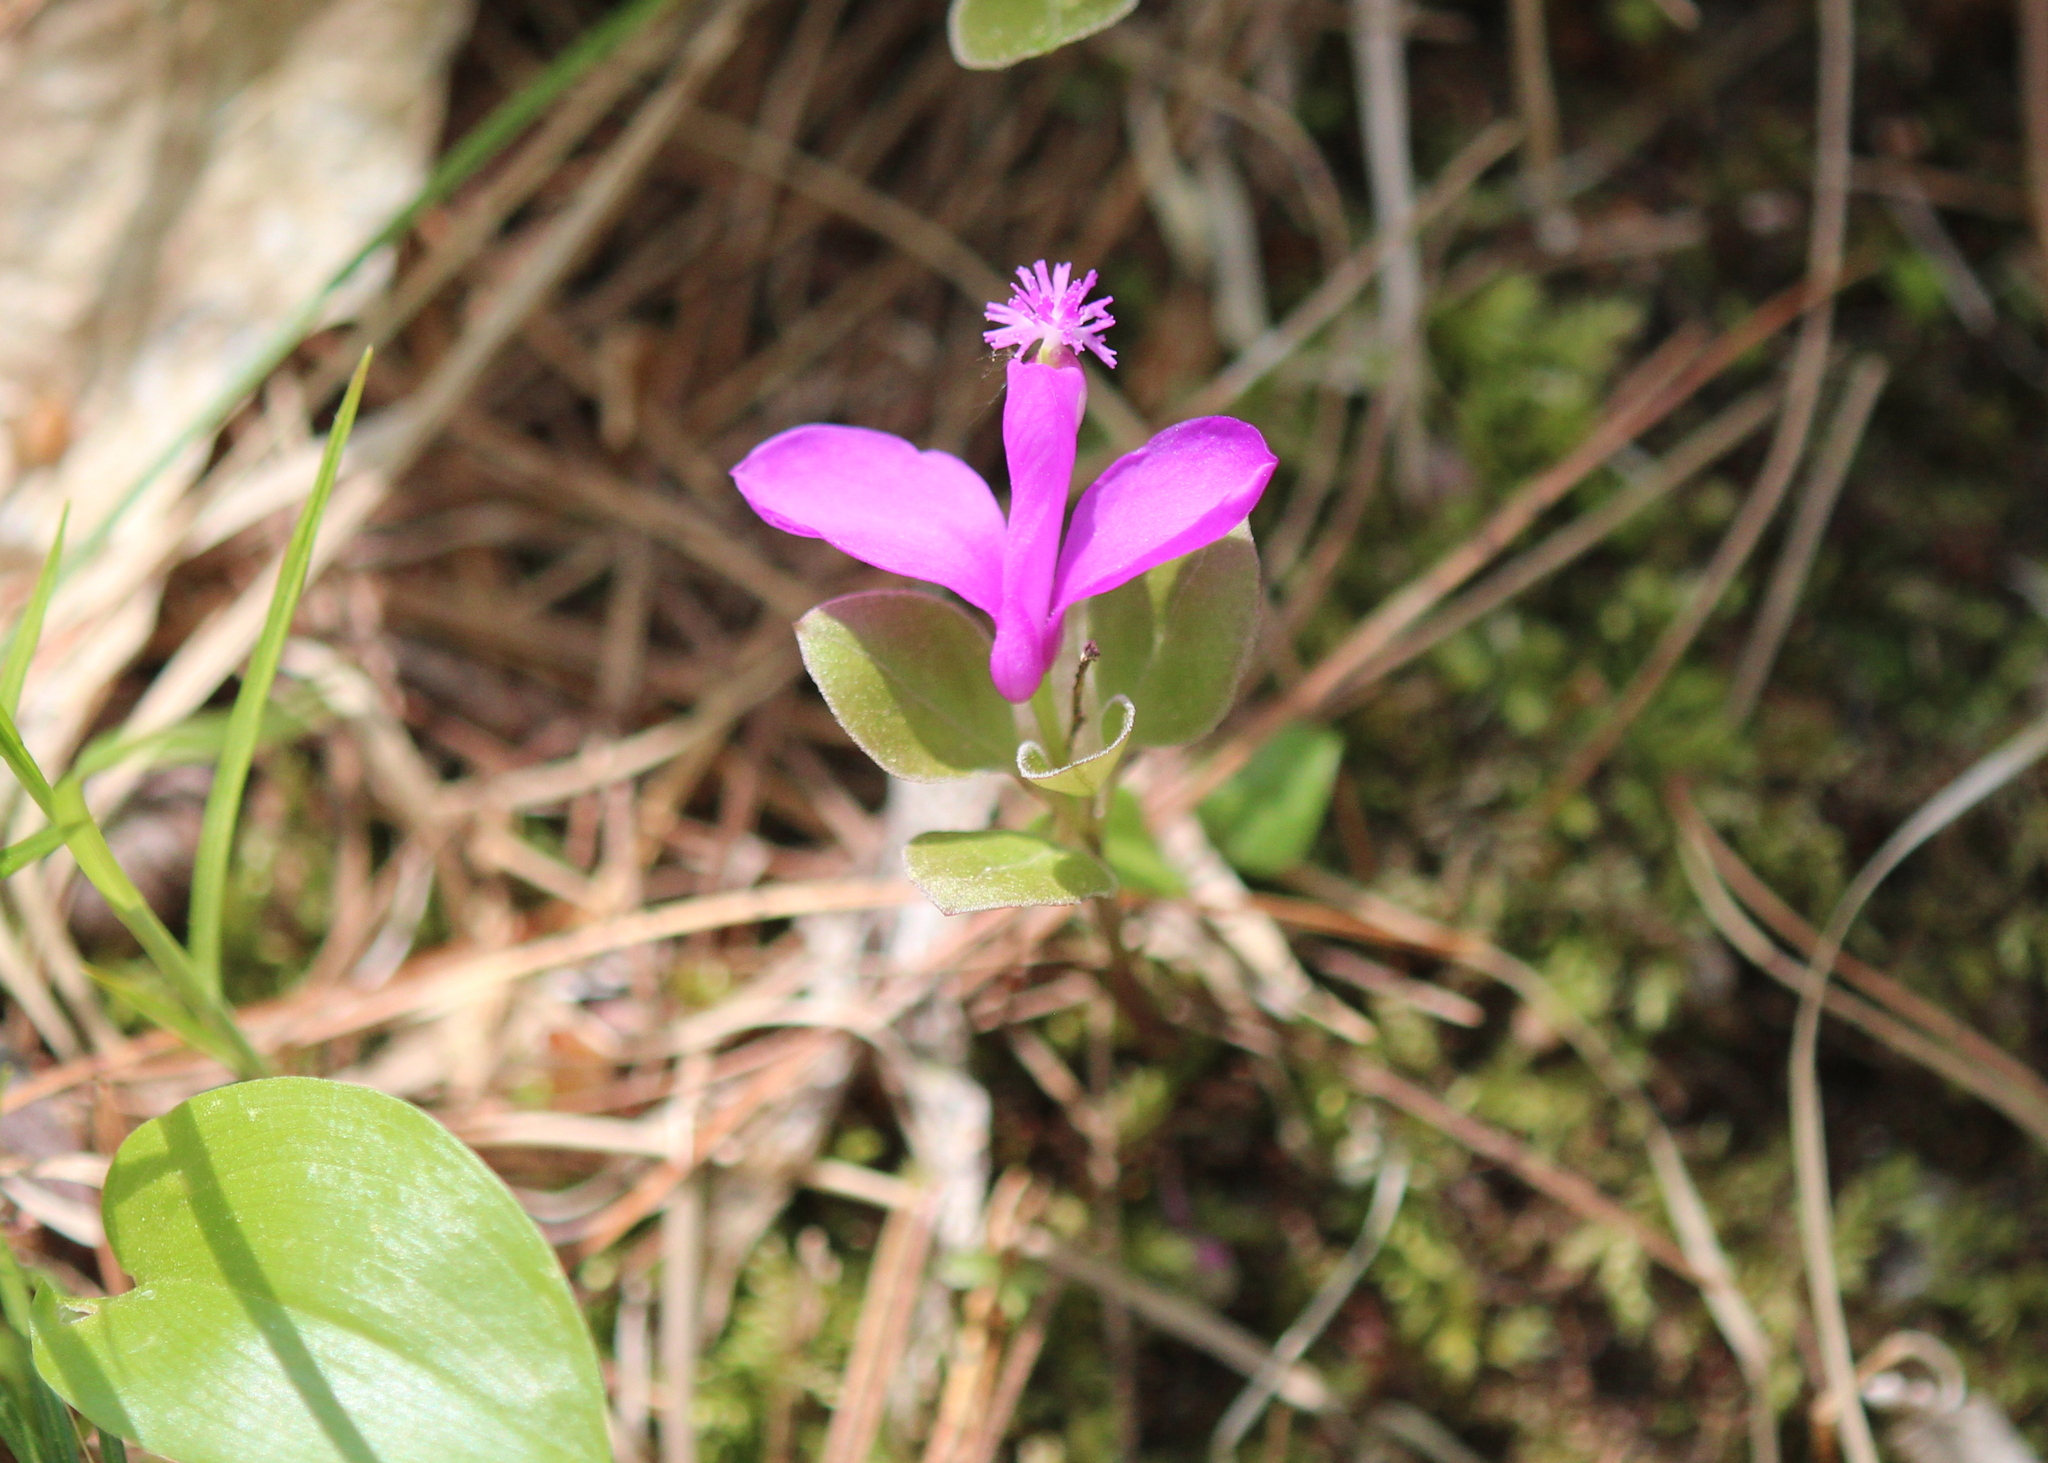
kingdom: Plantae
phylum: Tracheophyta
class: Magnoliopsida
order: Fabales
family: Polygalaceae
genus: Polygaloides
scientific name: Polygaloides paucifolia
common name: Bird-on-the-wing
